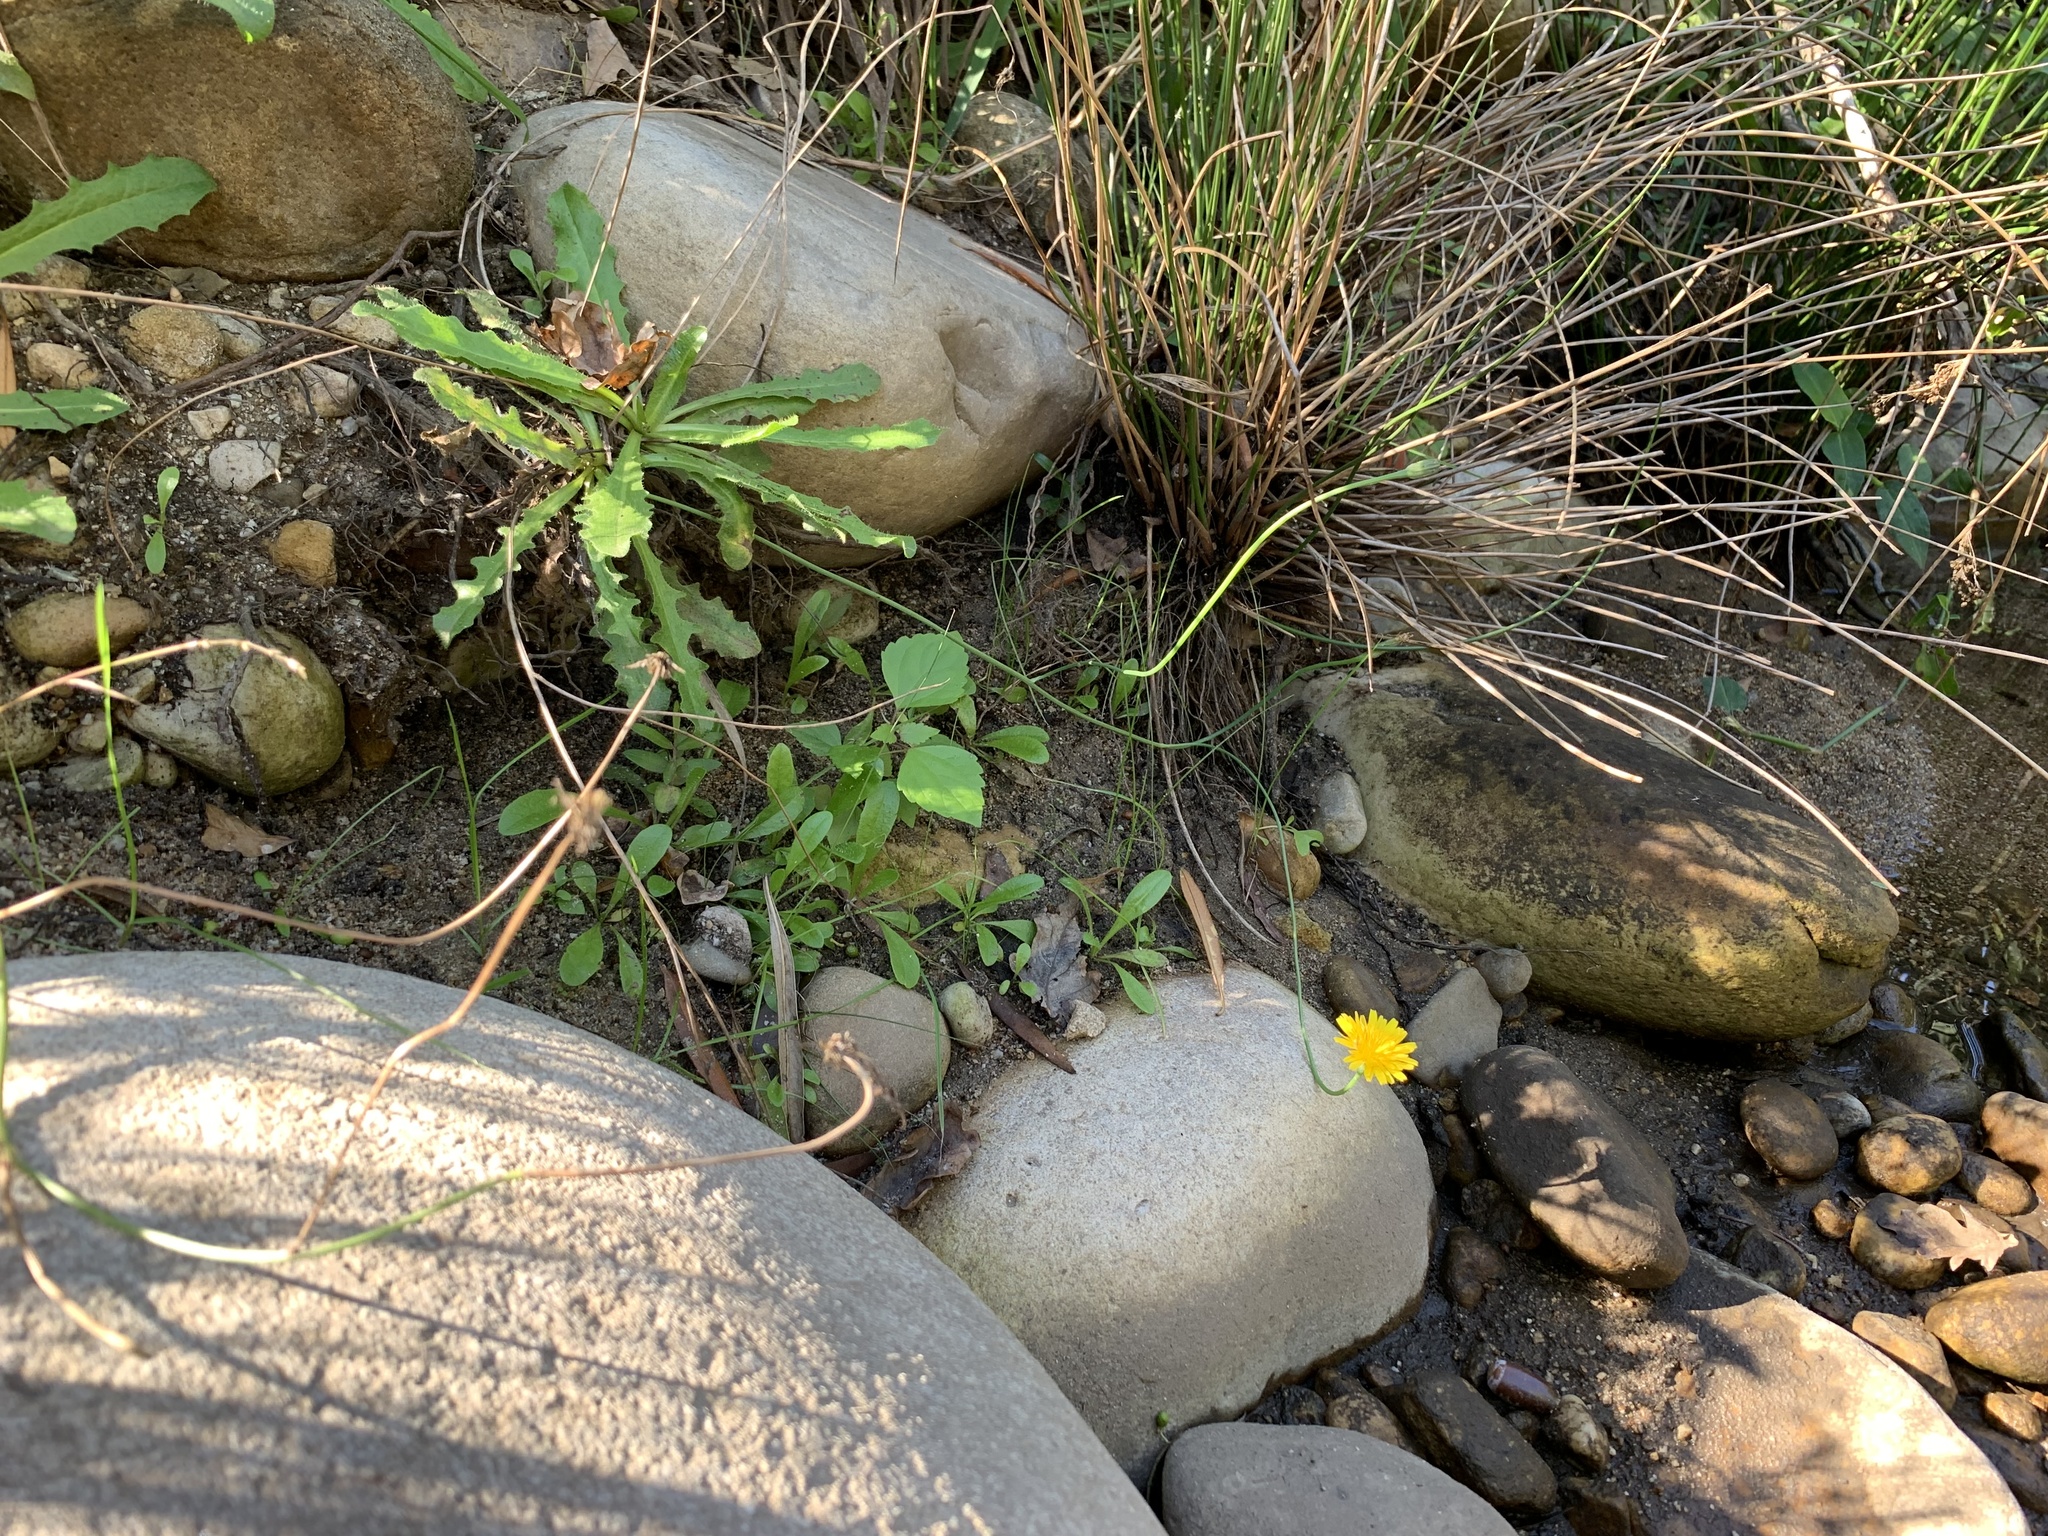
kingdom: Plantae
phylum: Tracheophyta
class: Magnoliopsida
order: Asterales
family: Asteraceae
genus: Hypochaeris
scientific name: Hypochaeris radicata
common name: Flatweed
